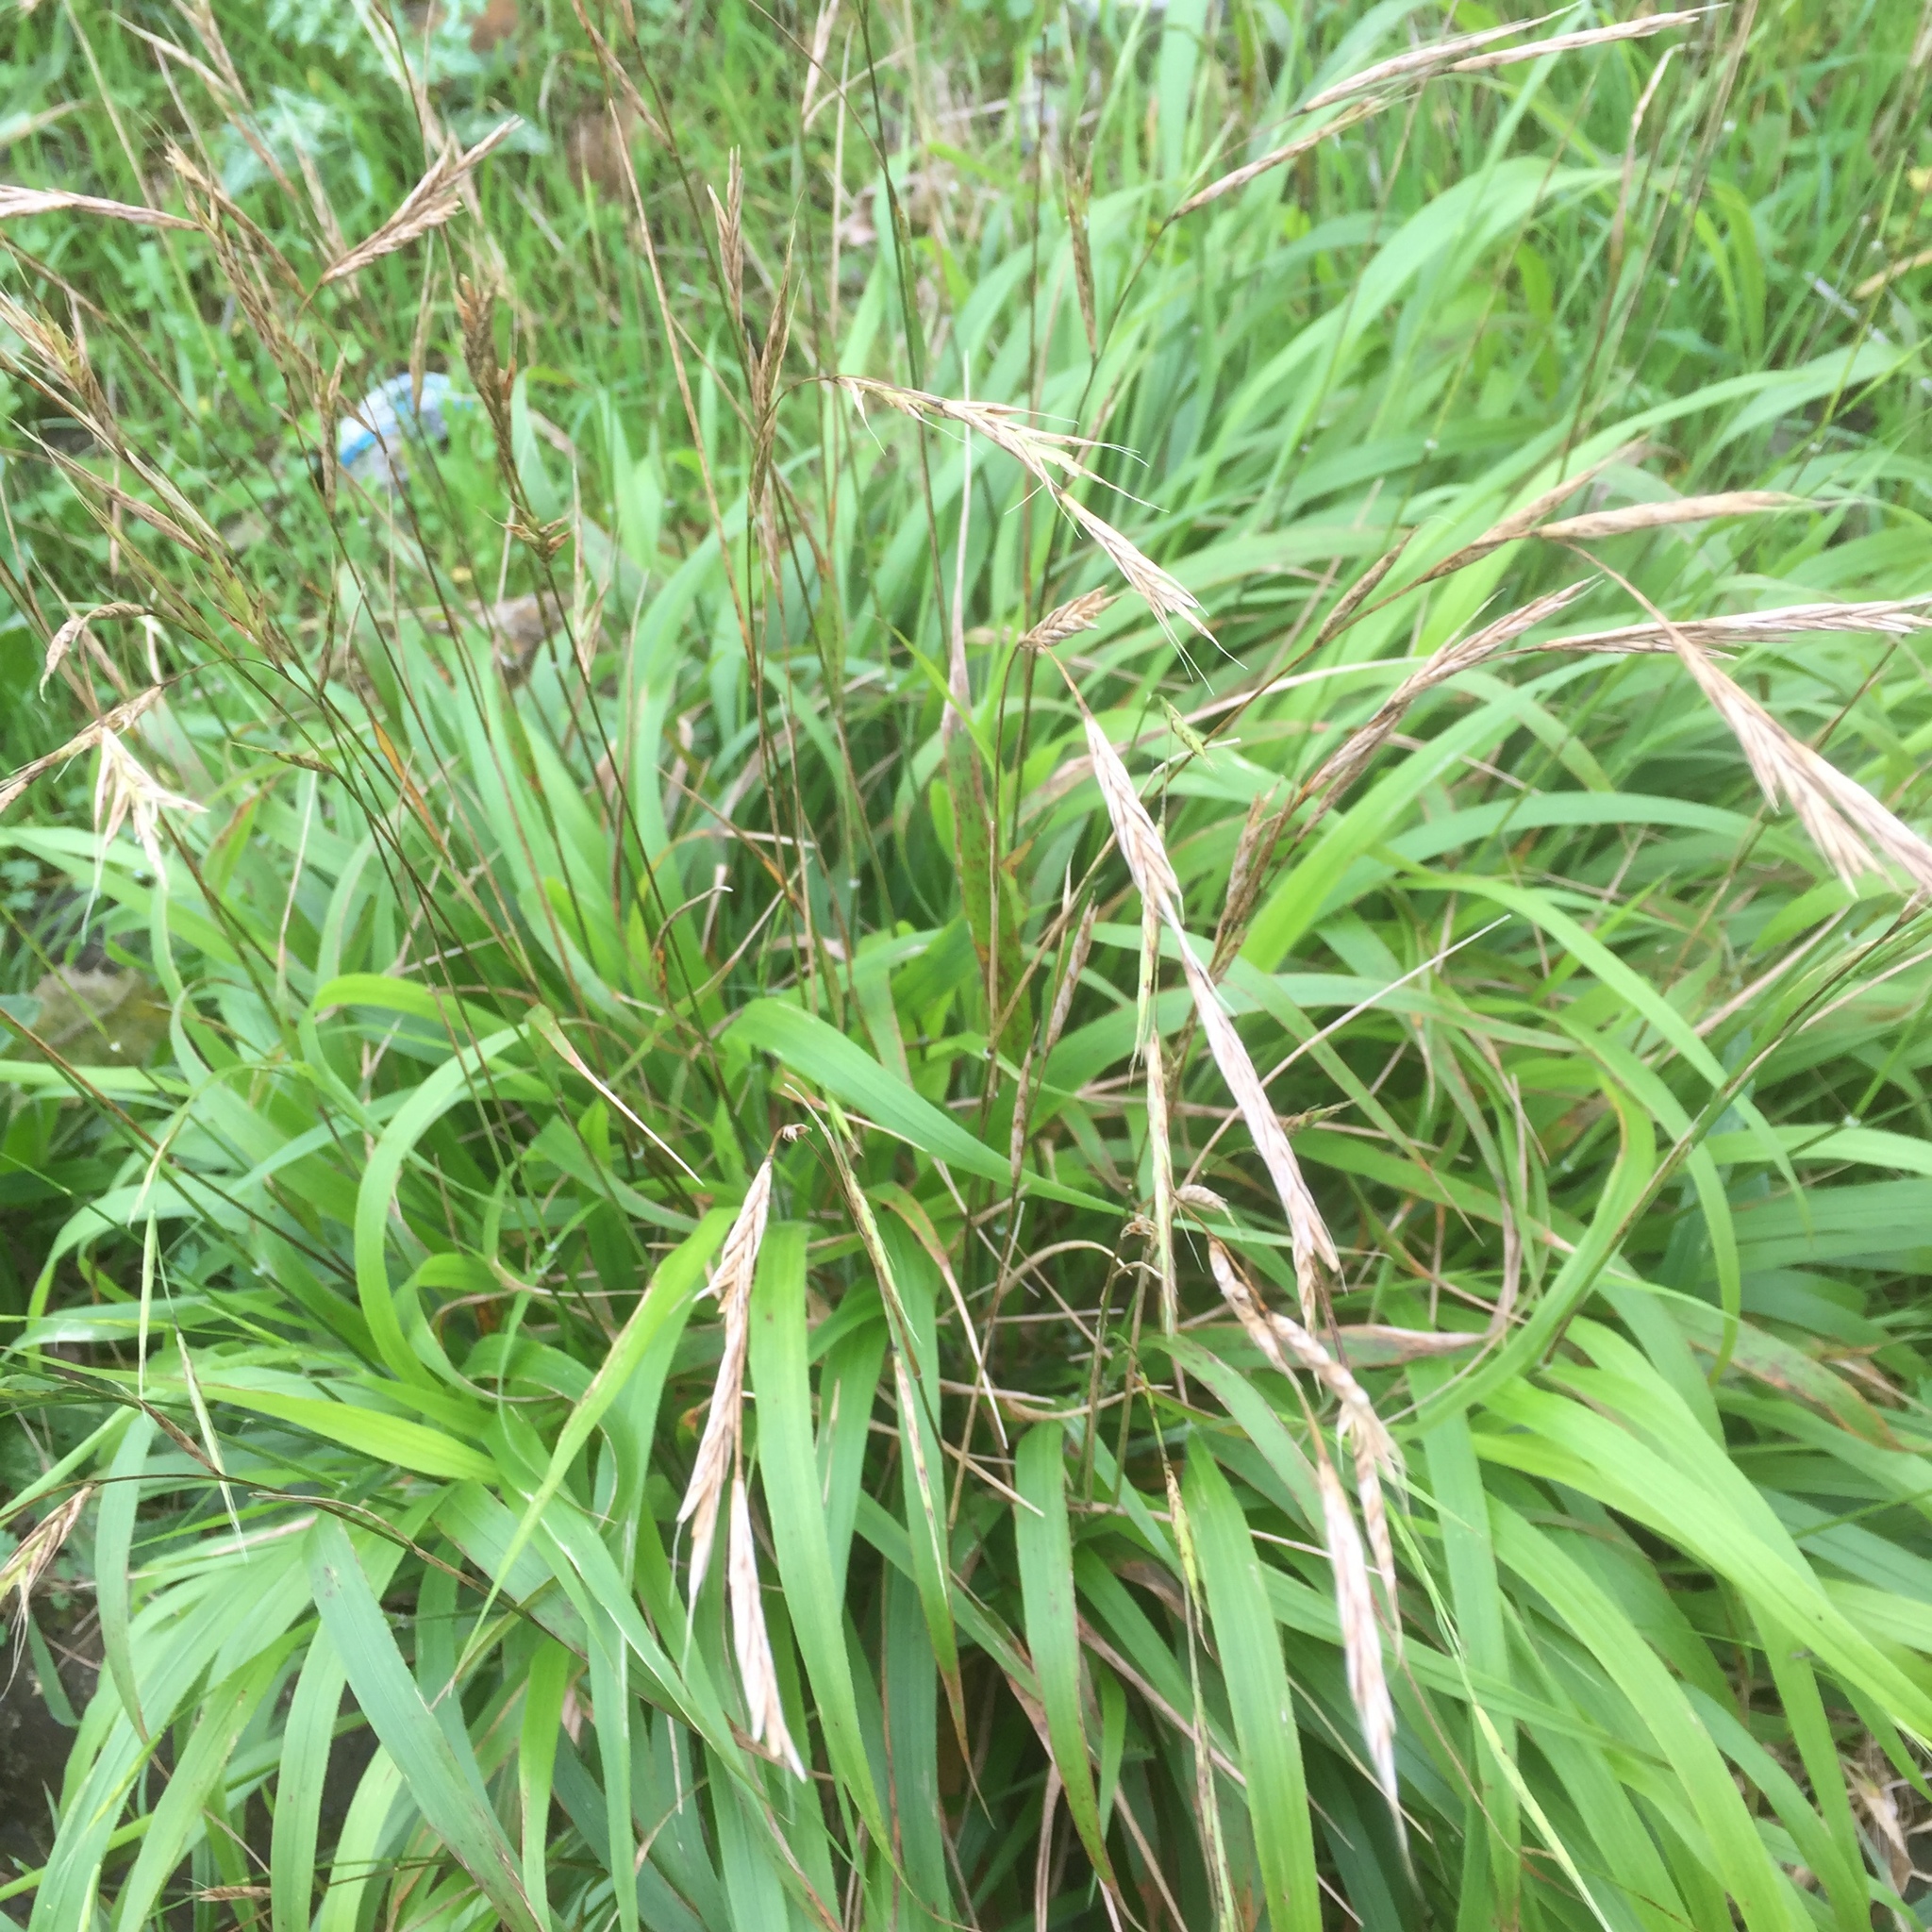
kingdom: Plantae
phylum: Tracheophyta
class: Liliopsida
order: Poales
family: Poaceae
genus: Brachypodium
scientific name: Brachypodium sylvaticum
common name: False-brome
